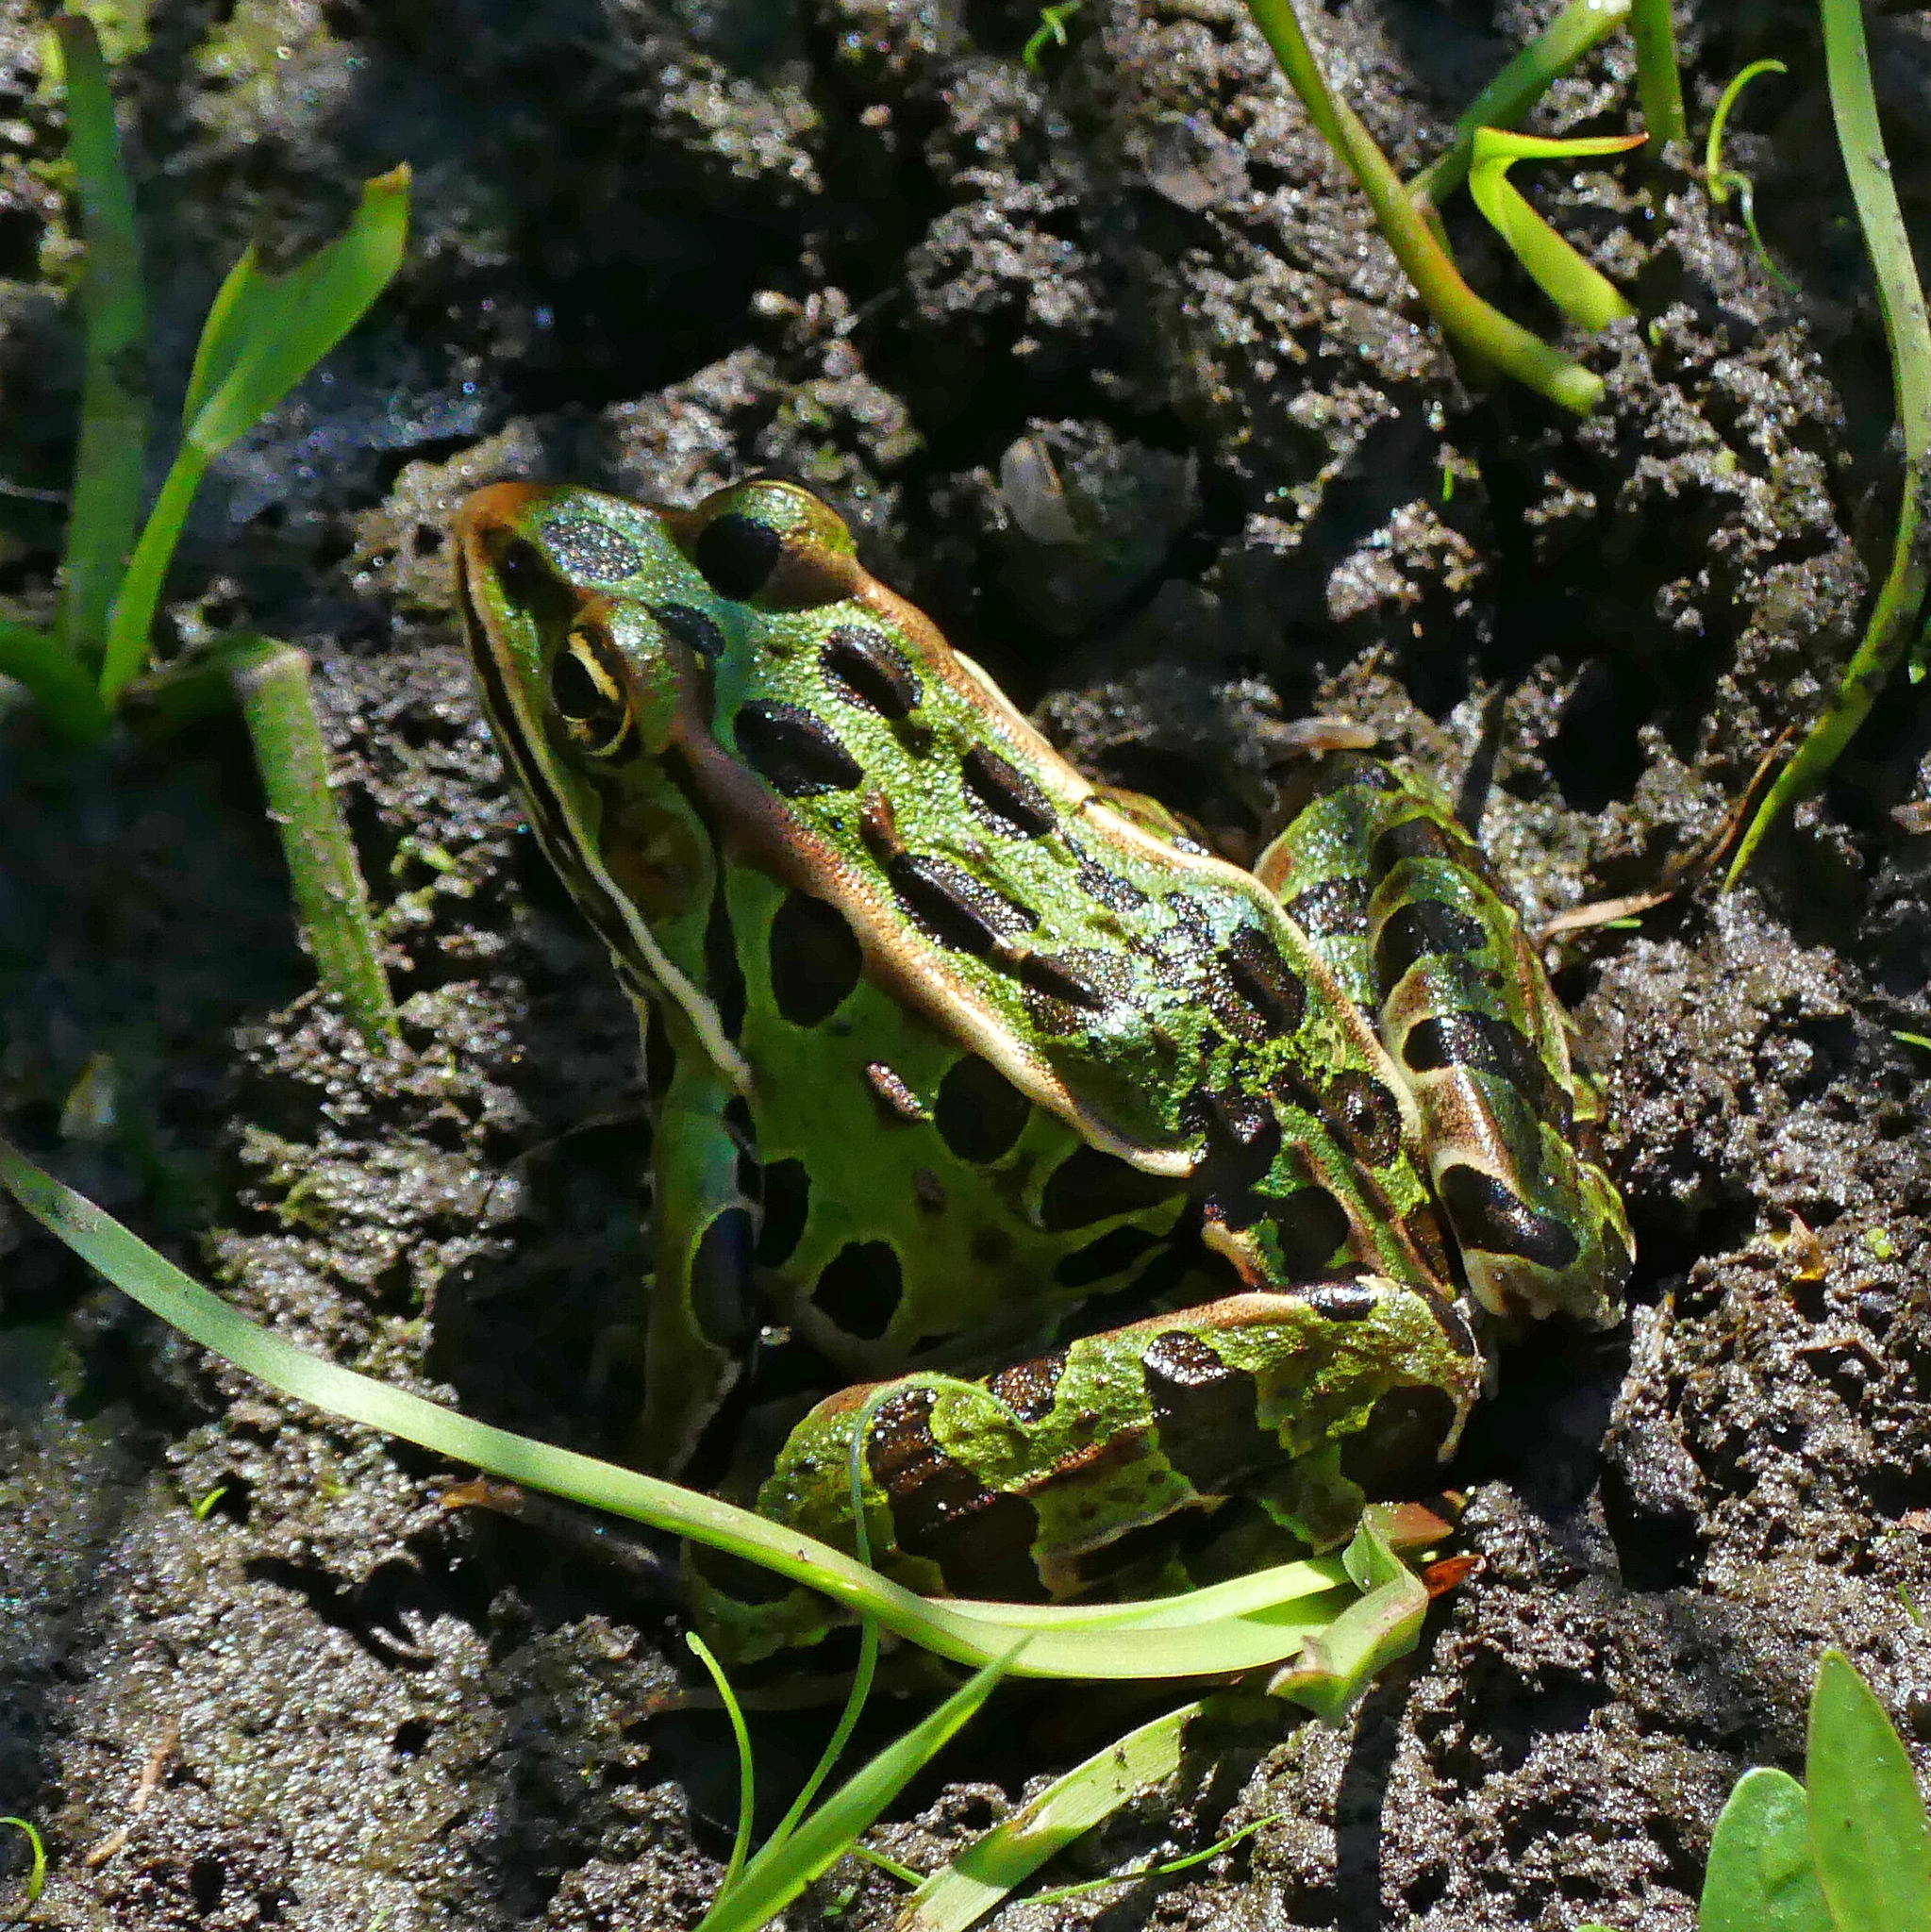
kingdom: Animalia
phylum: Chordata
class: Amphibia
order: Anura
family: Ranidae
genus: Lithobates
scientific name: Lithobates pipiens
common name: Northern leopard frog
